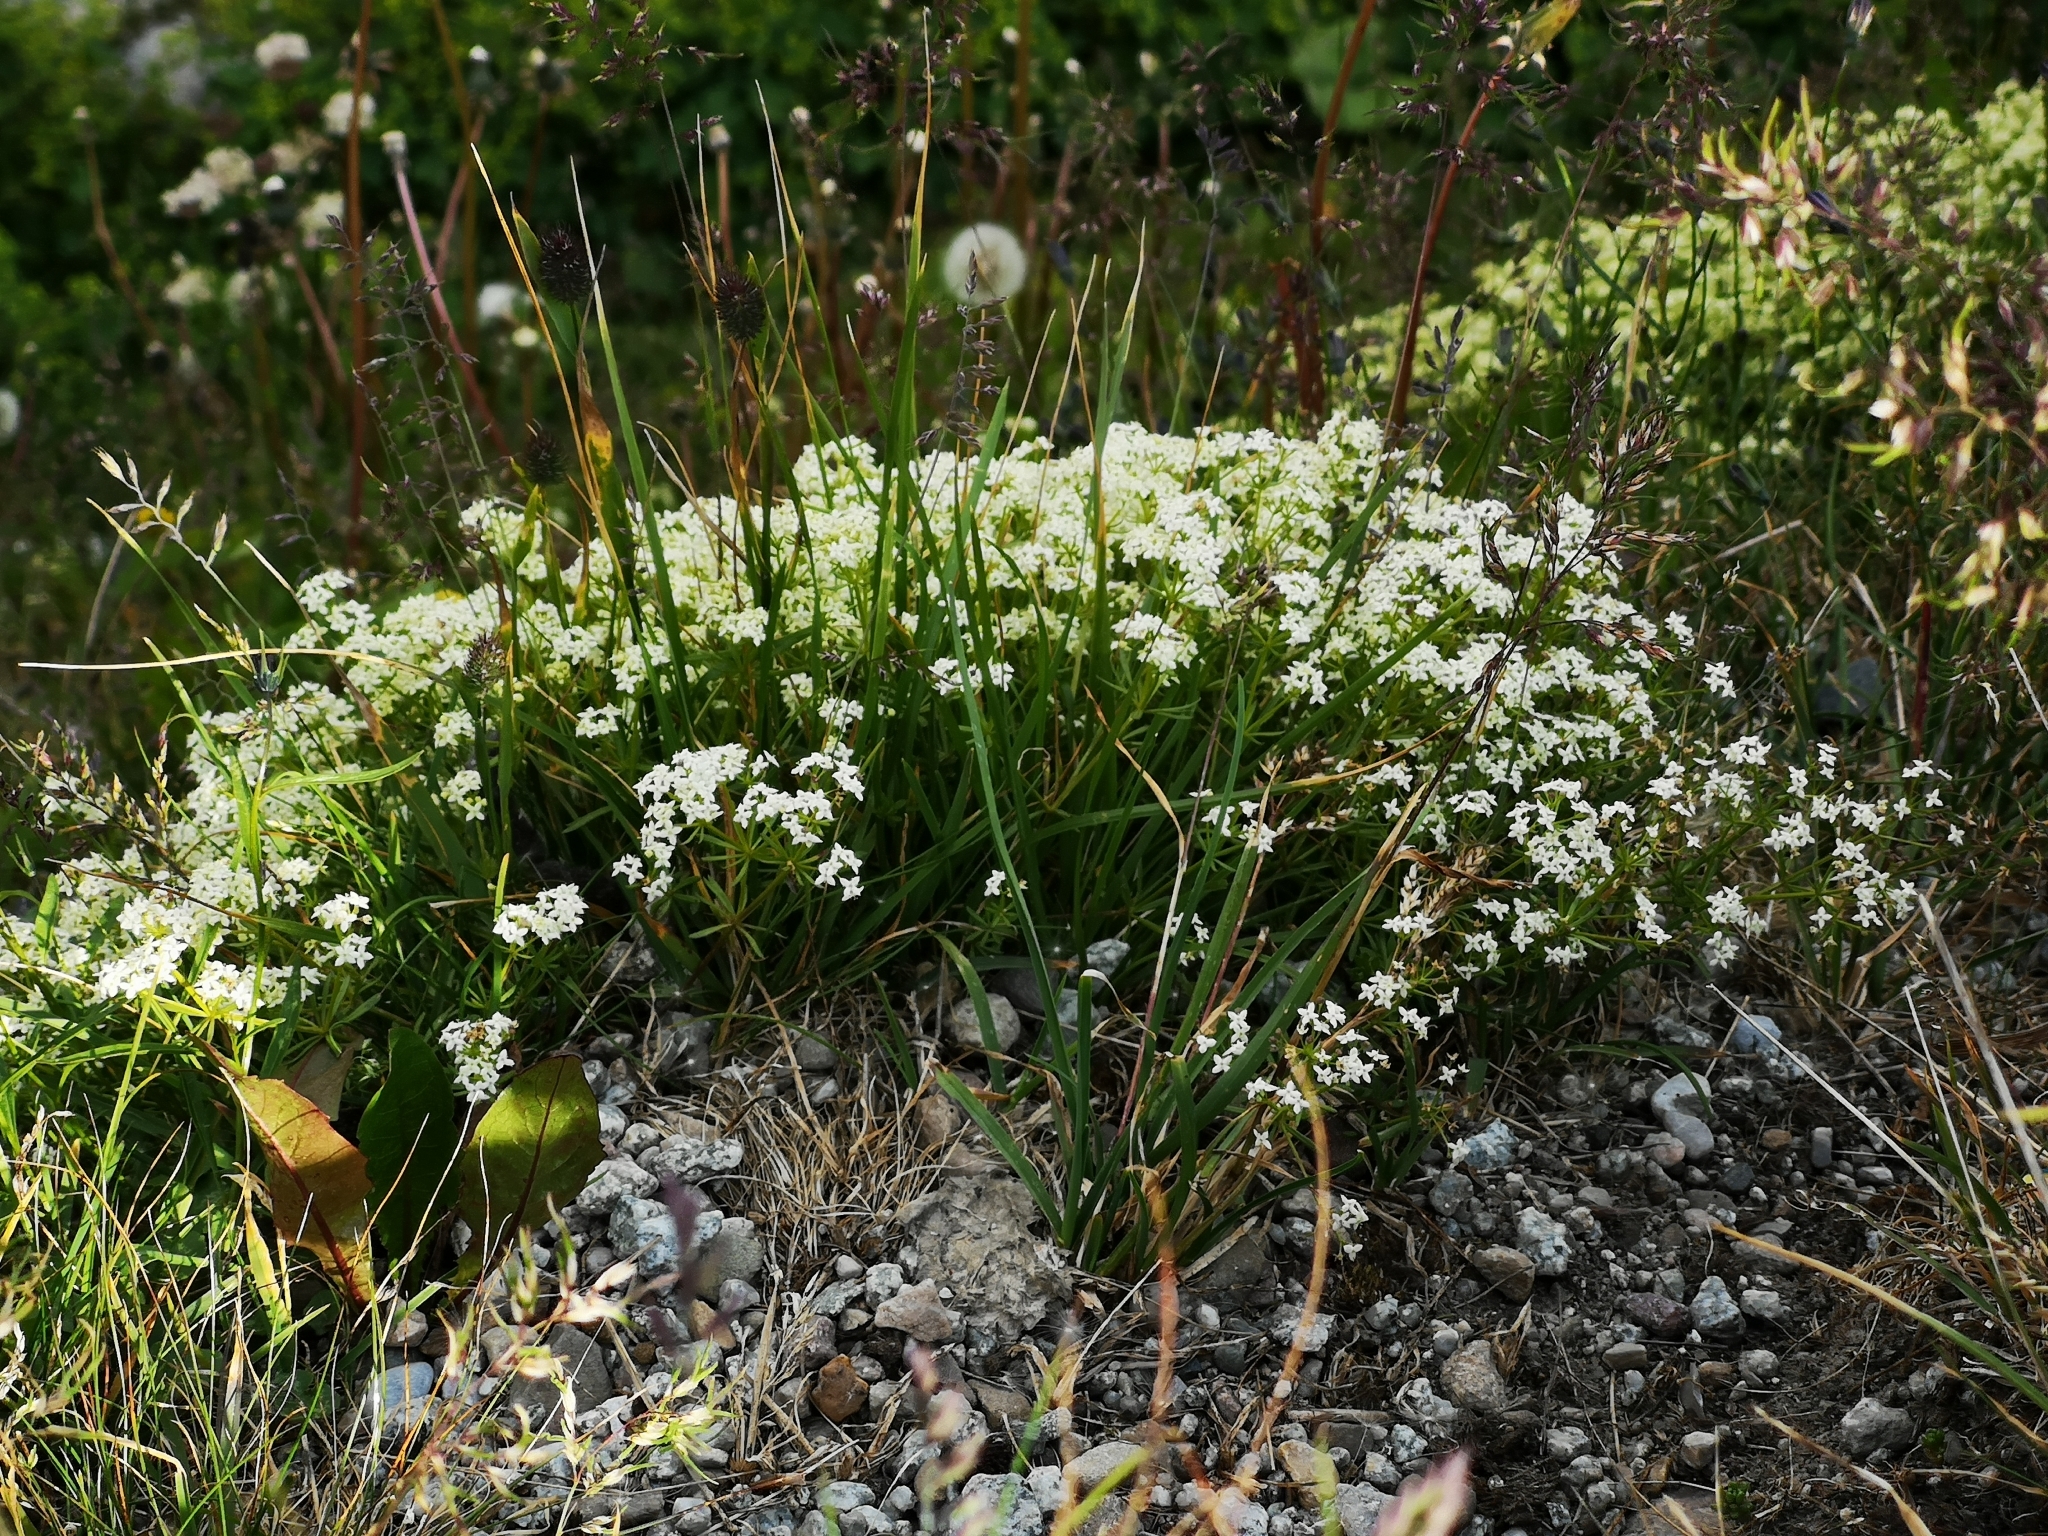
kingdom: Plantae
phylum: Tracheophyta
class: Magnoliopsida
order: Gentianales
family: Rubiaceae
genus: Galium
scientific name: Galium anisophyllon
